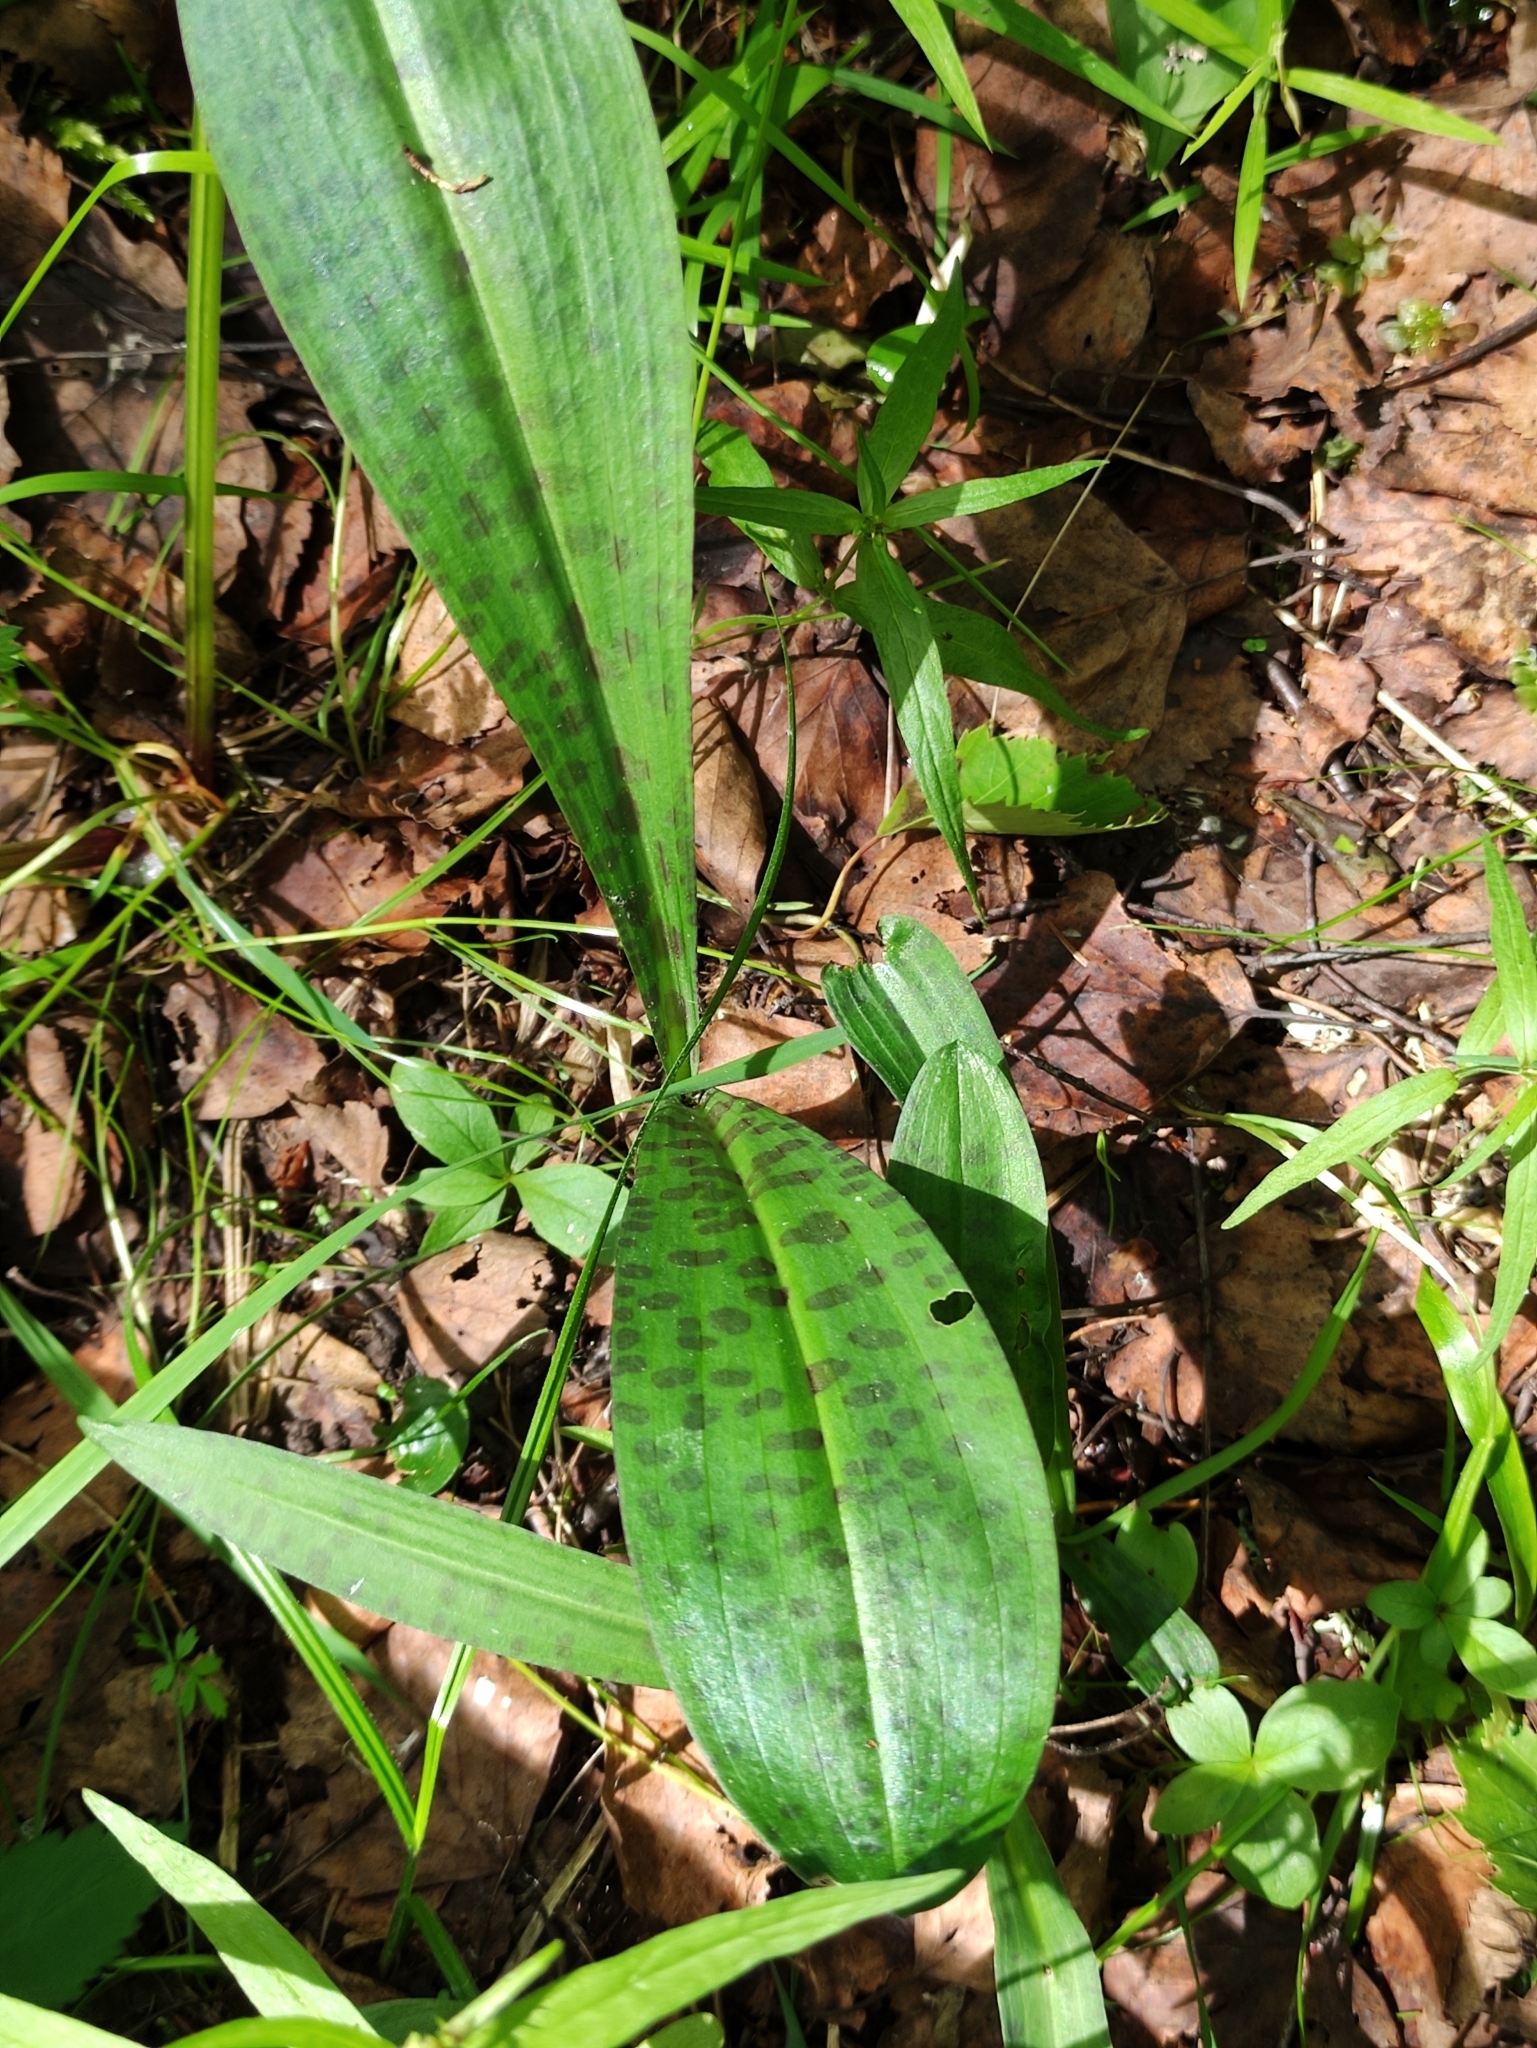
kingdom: Plantae
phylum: Tracheophyta
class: Liliopsida
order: Asparagales
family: Orchidaceae
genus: Dactylorhiza
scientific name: Dactylorhiza maculata
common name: Heath spotted-orchid
